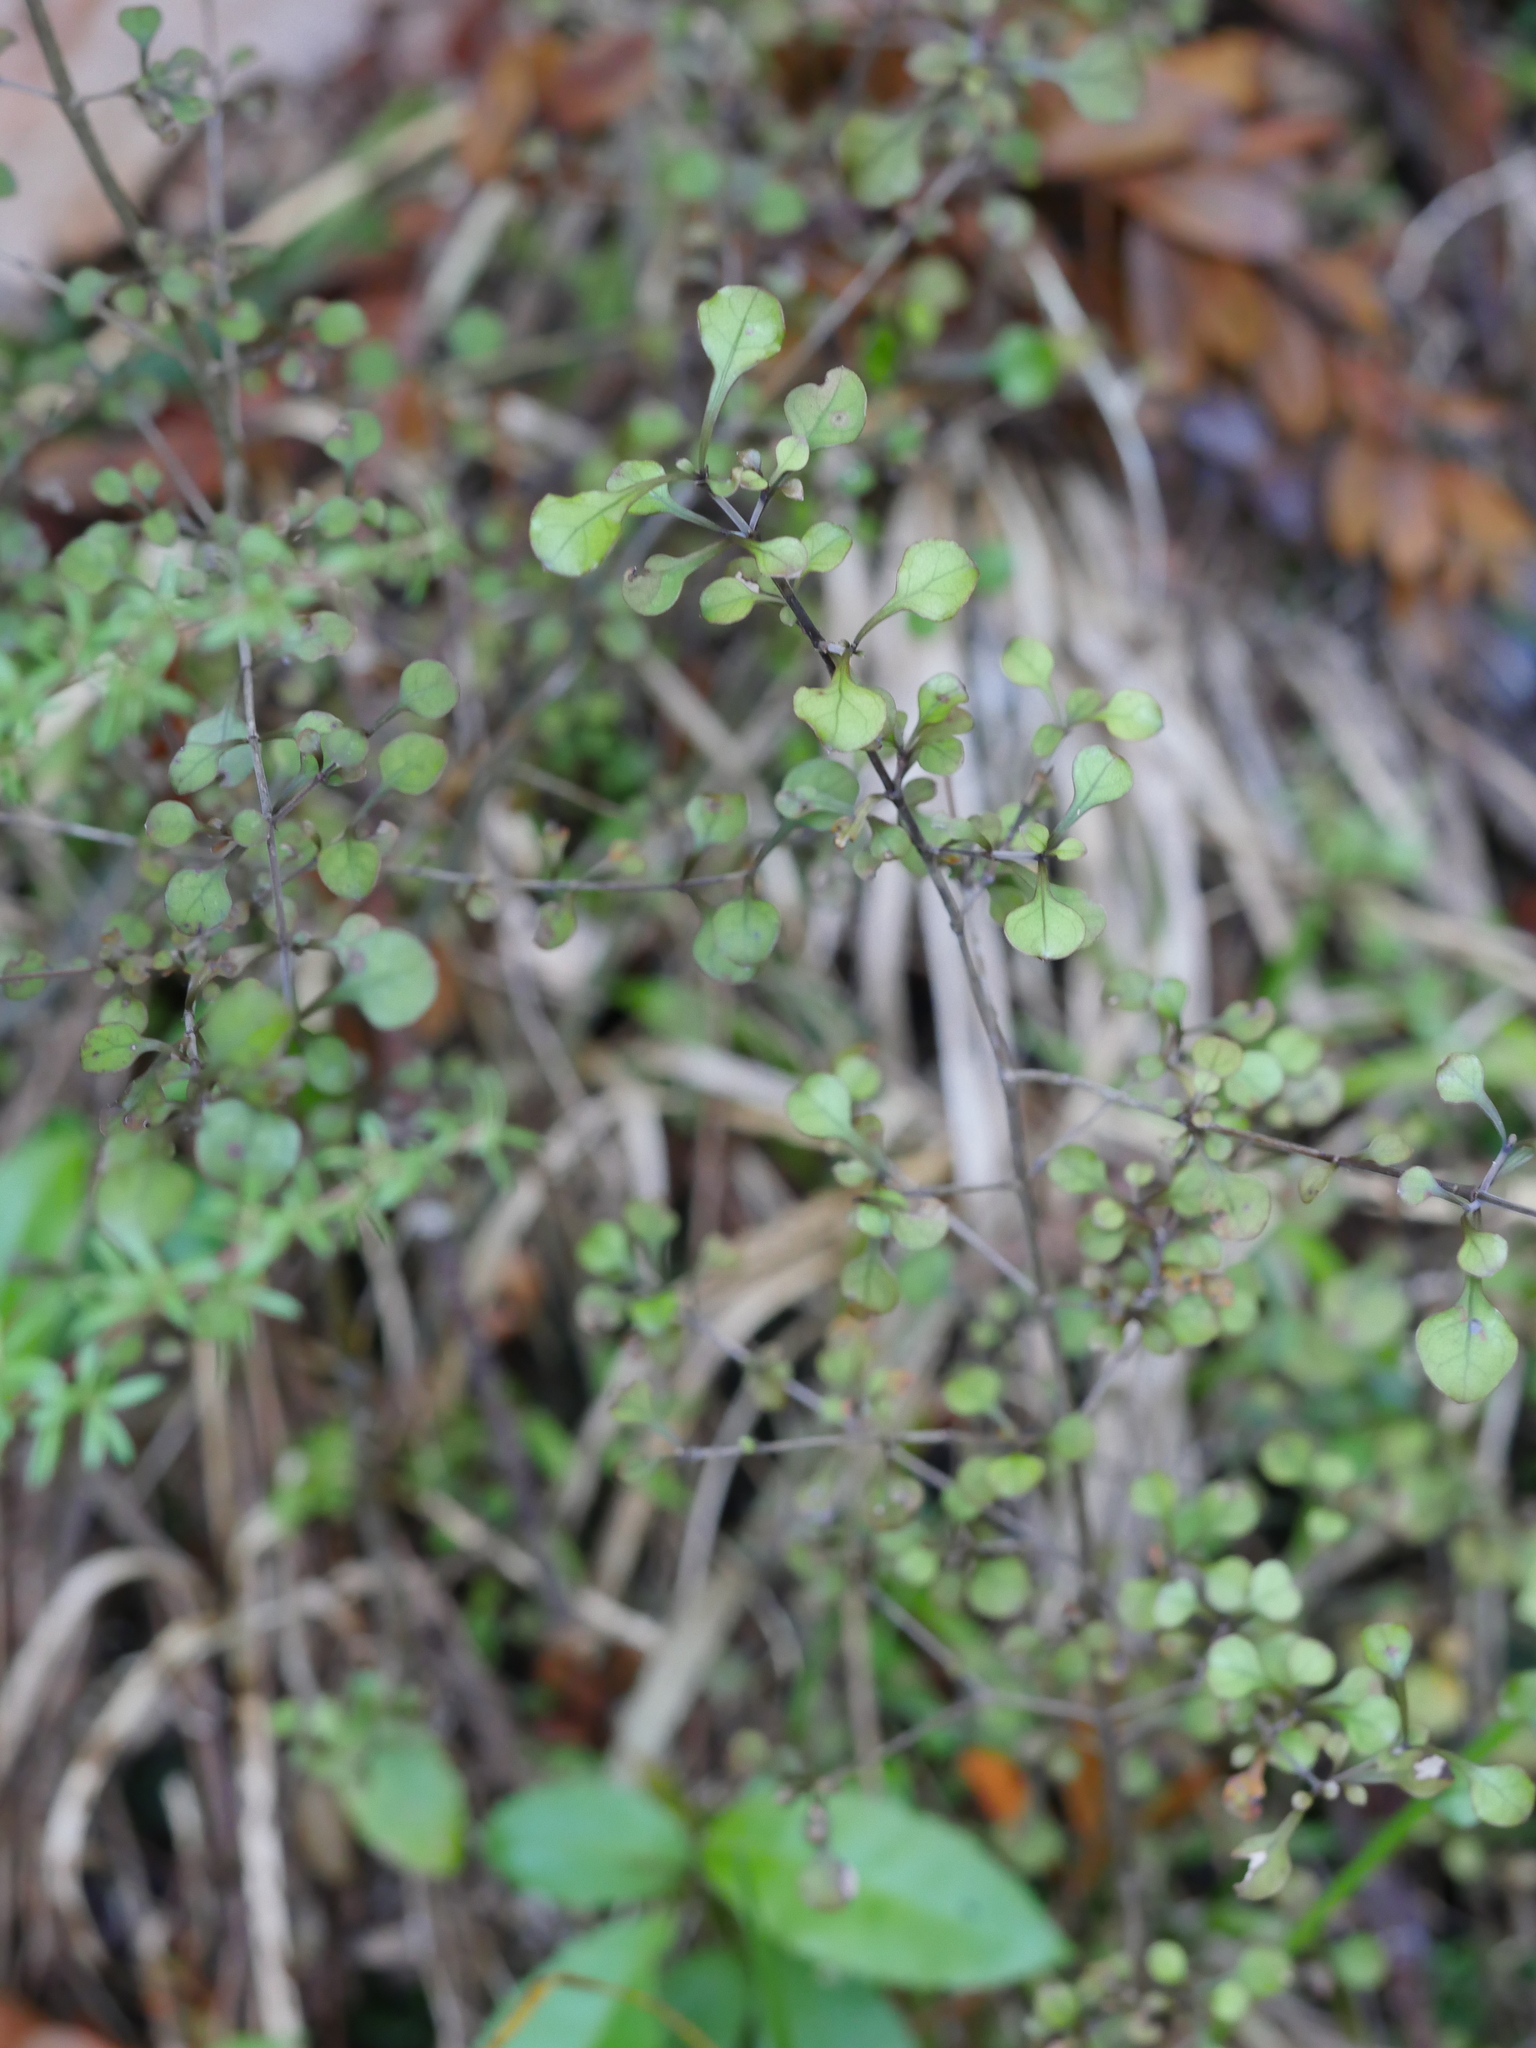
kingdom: Plantae
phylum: Tracheophyta
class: Magnoliopsida
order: Gentianales
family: Rubiaceae
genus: Coprosma
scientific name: Coprosma arborea
